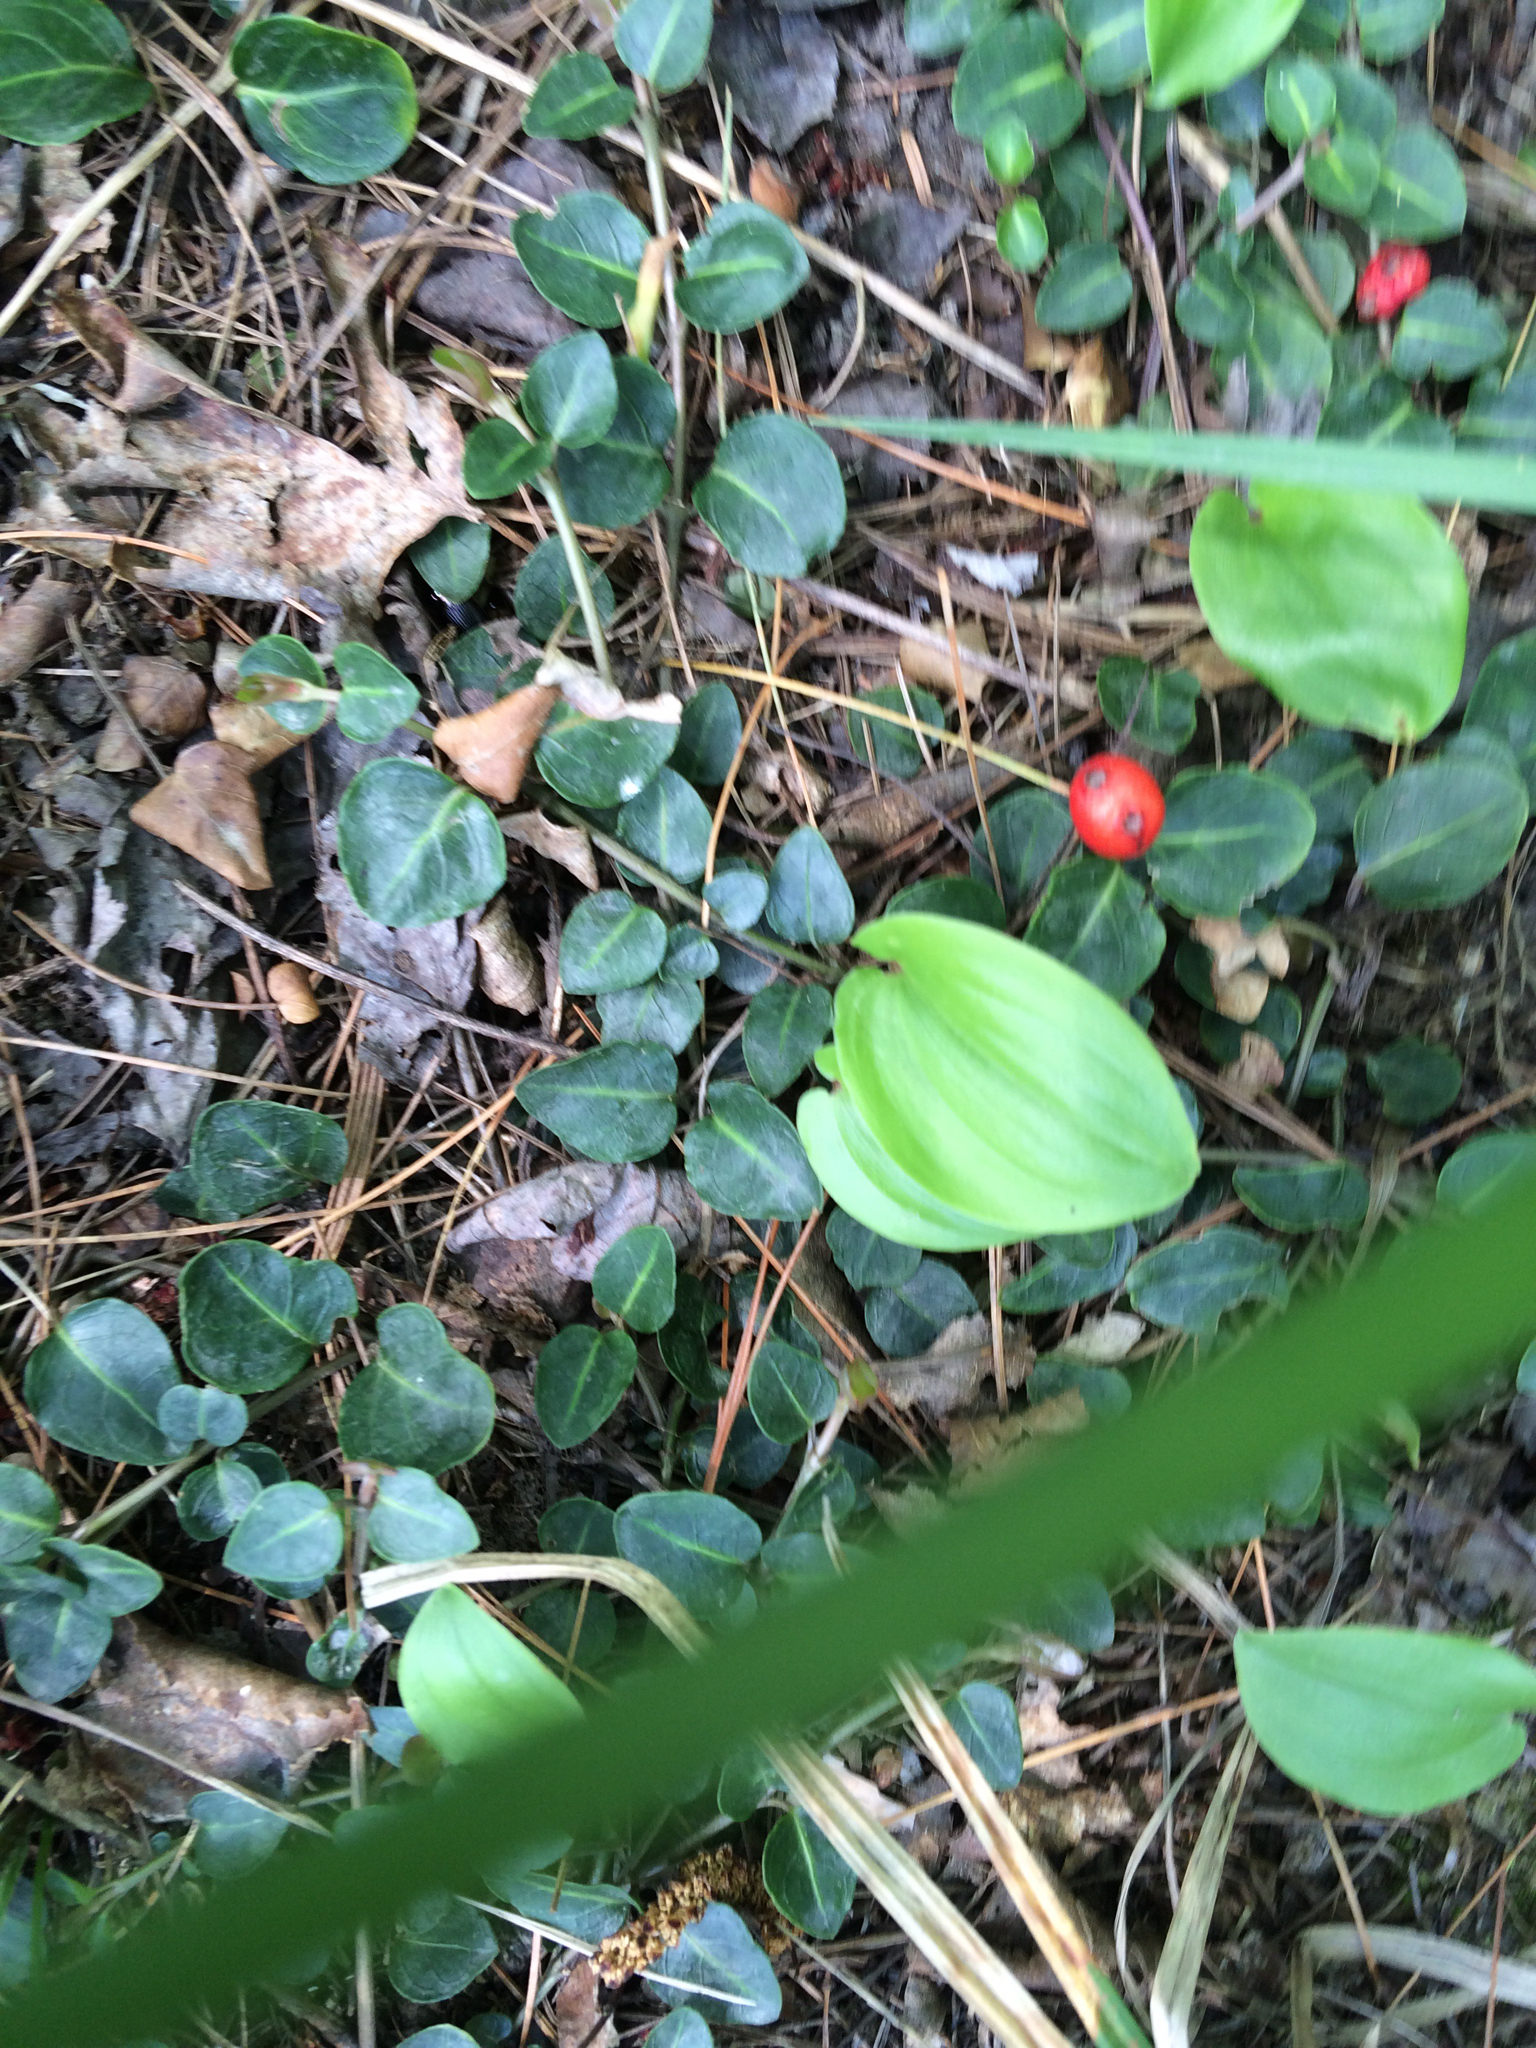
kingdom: Plantae
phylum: Tracheophyta
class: Magnoliopsida
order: Gentianales
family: Rubiaceae
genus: Mitchella
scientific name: Mitchella repens
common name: Partridge-berry
